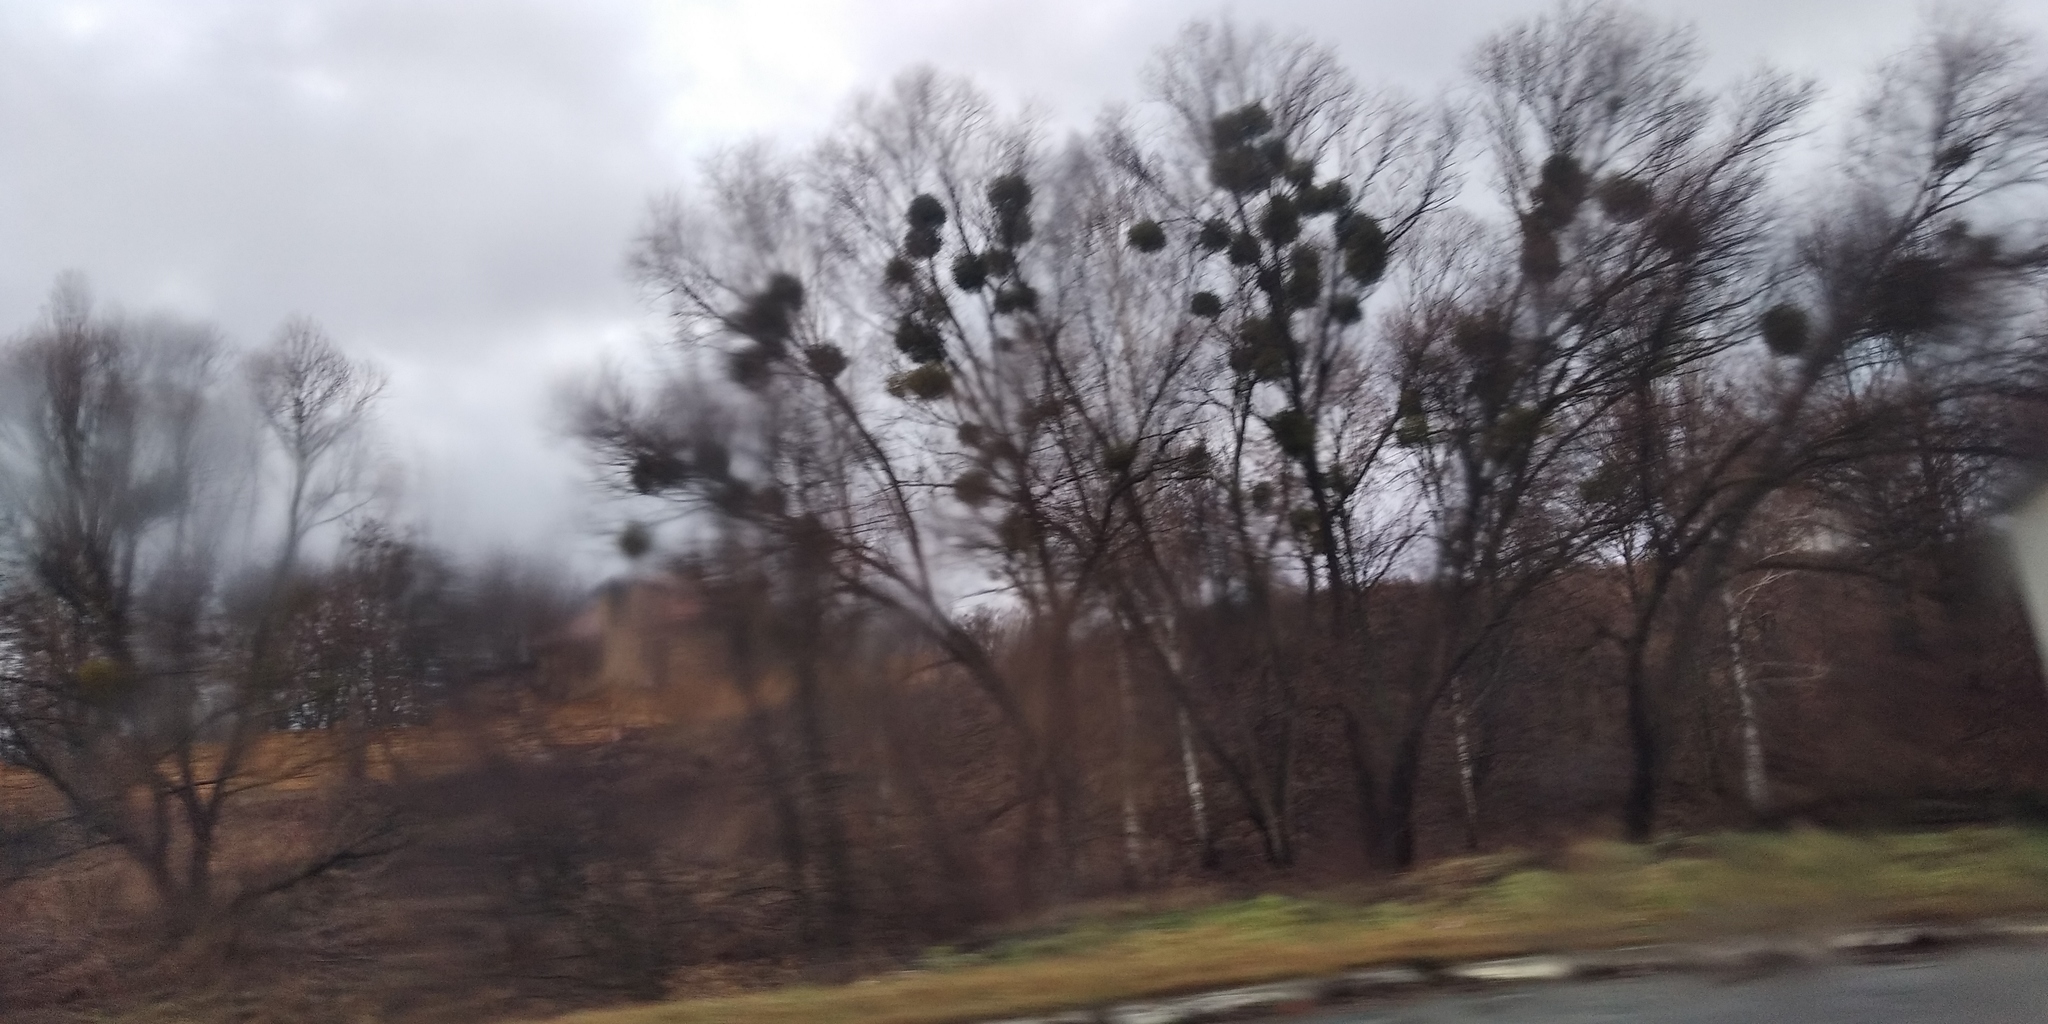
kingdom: Plantae
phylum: Tracheophyta
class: Magnoliopsida
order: Santalales
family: Viscaceae
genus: Viscum
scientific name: Viscum album
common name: Mistletoe
